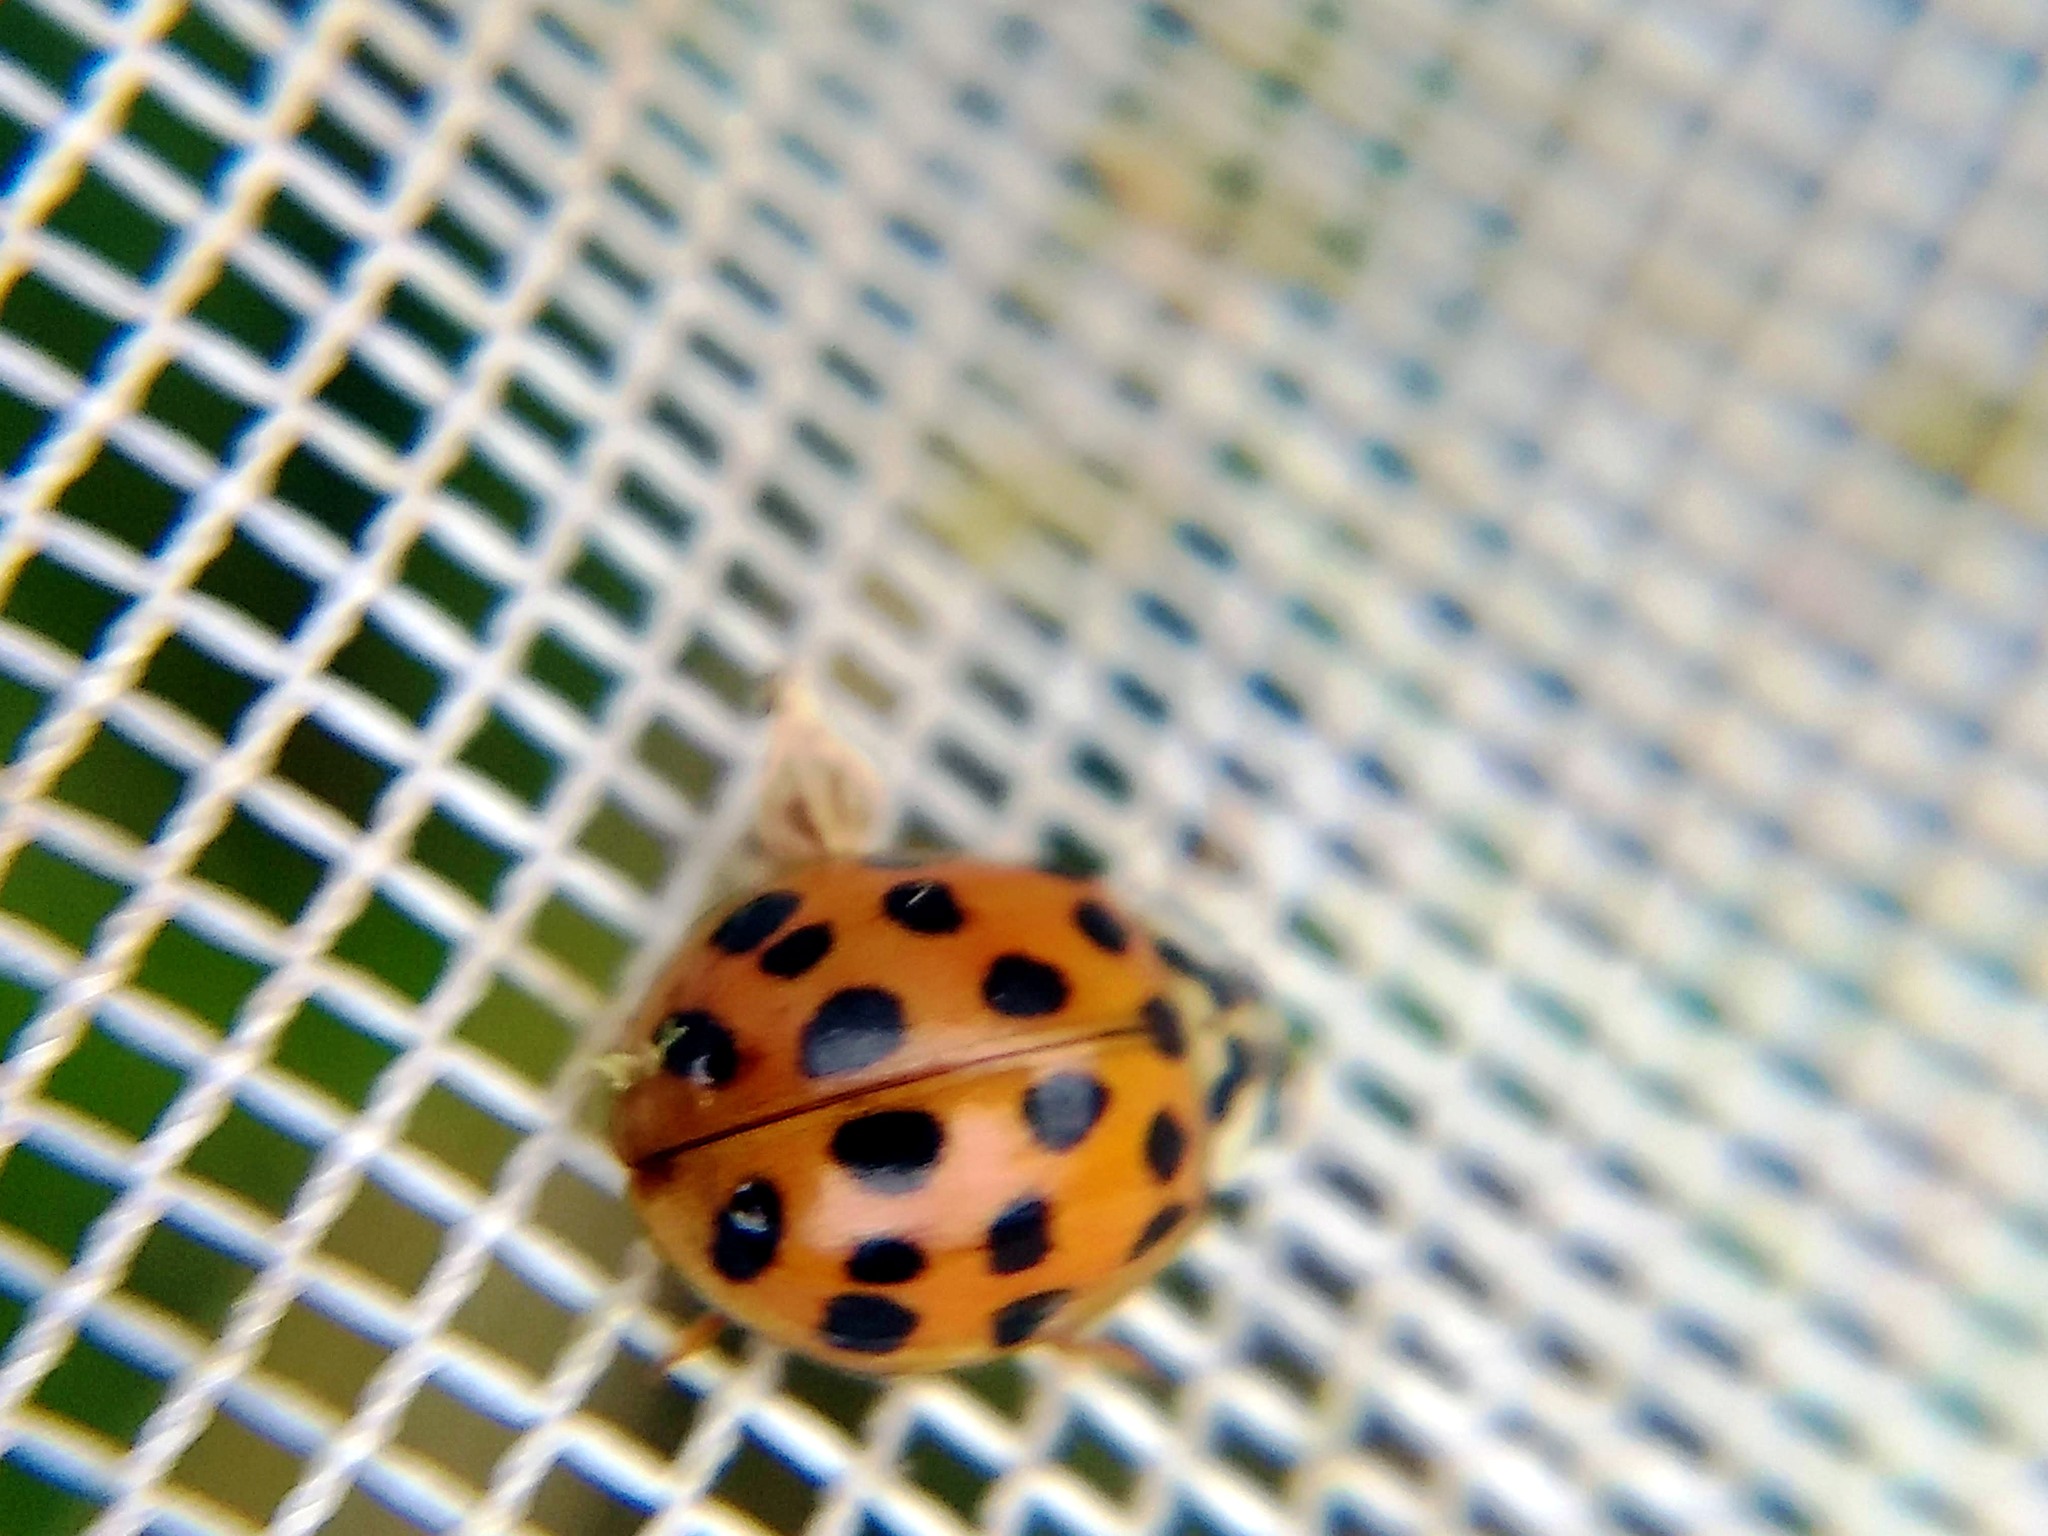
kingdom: Animalia
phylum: Arthropoda
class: Insecta
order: Coleoptera
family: Coccinellidae
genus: Harmonia
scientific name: Harmonia axyridis
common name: Harlequin ladybird
